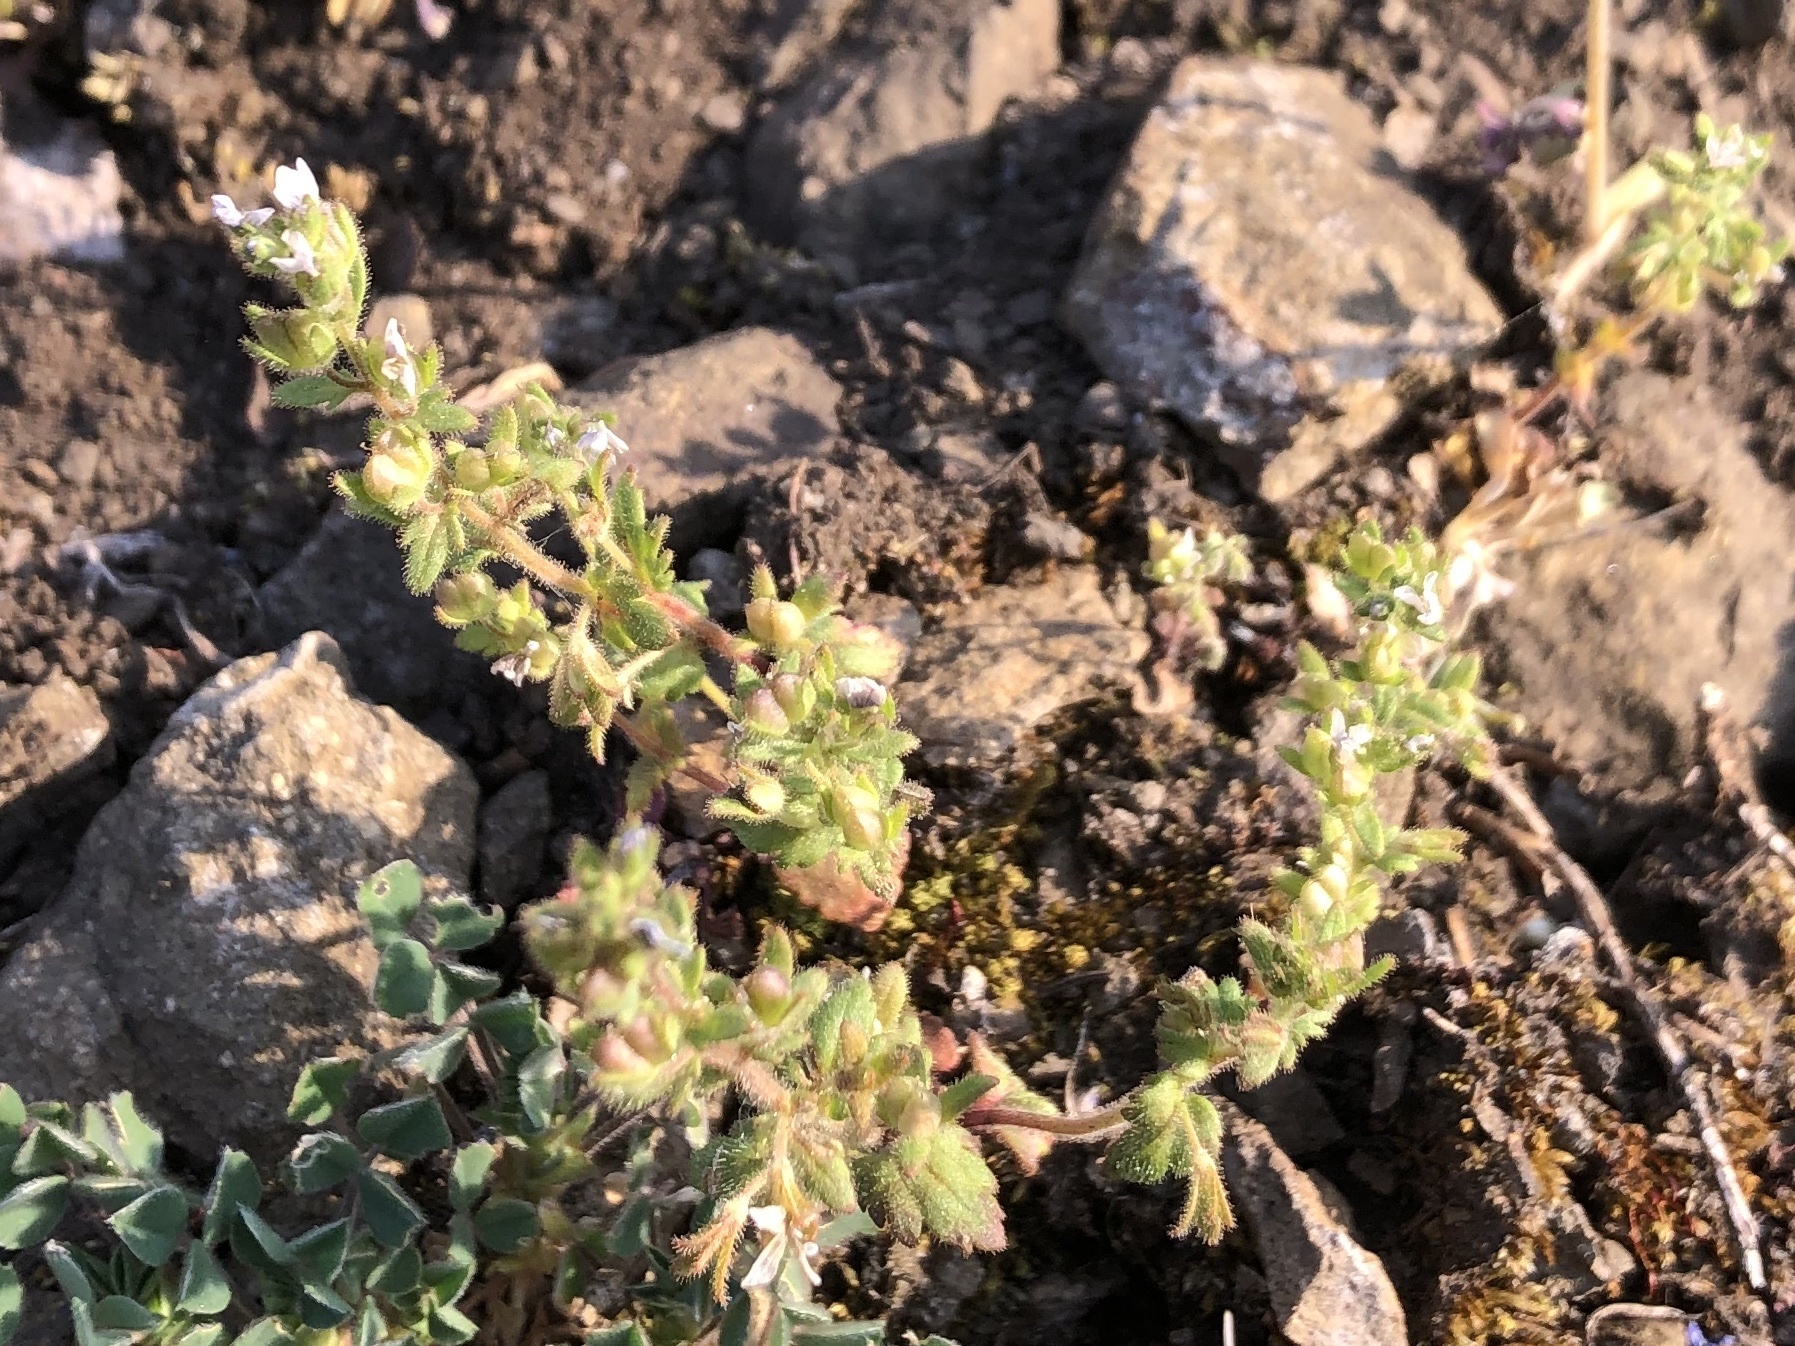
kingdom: Plantae
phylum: Tracheophyta
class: Magnoliopsida
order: Lamiales
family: Plantaginaceae
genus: Veronica
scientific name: Veronica praecox
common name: Breckland speedwell
